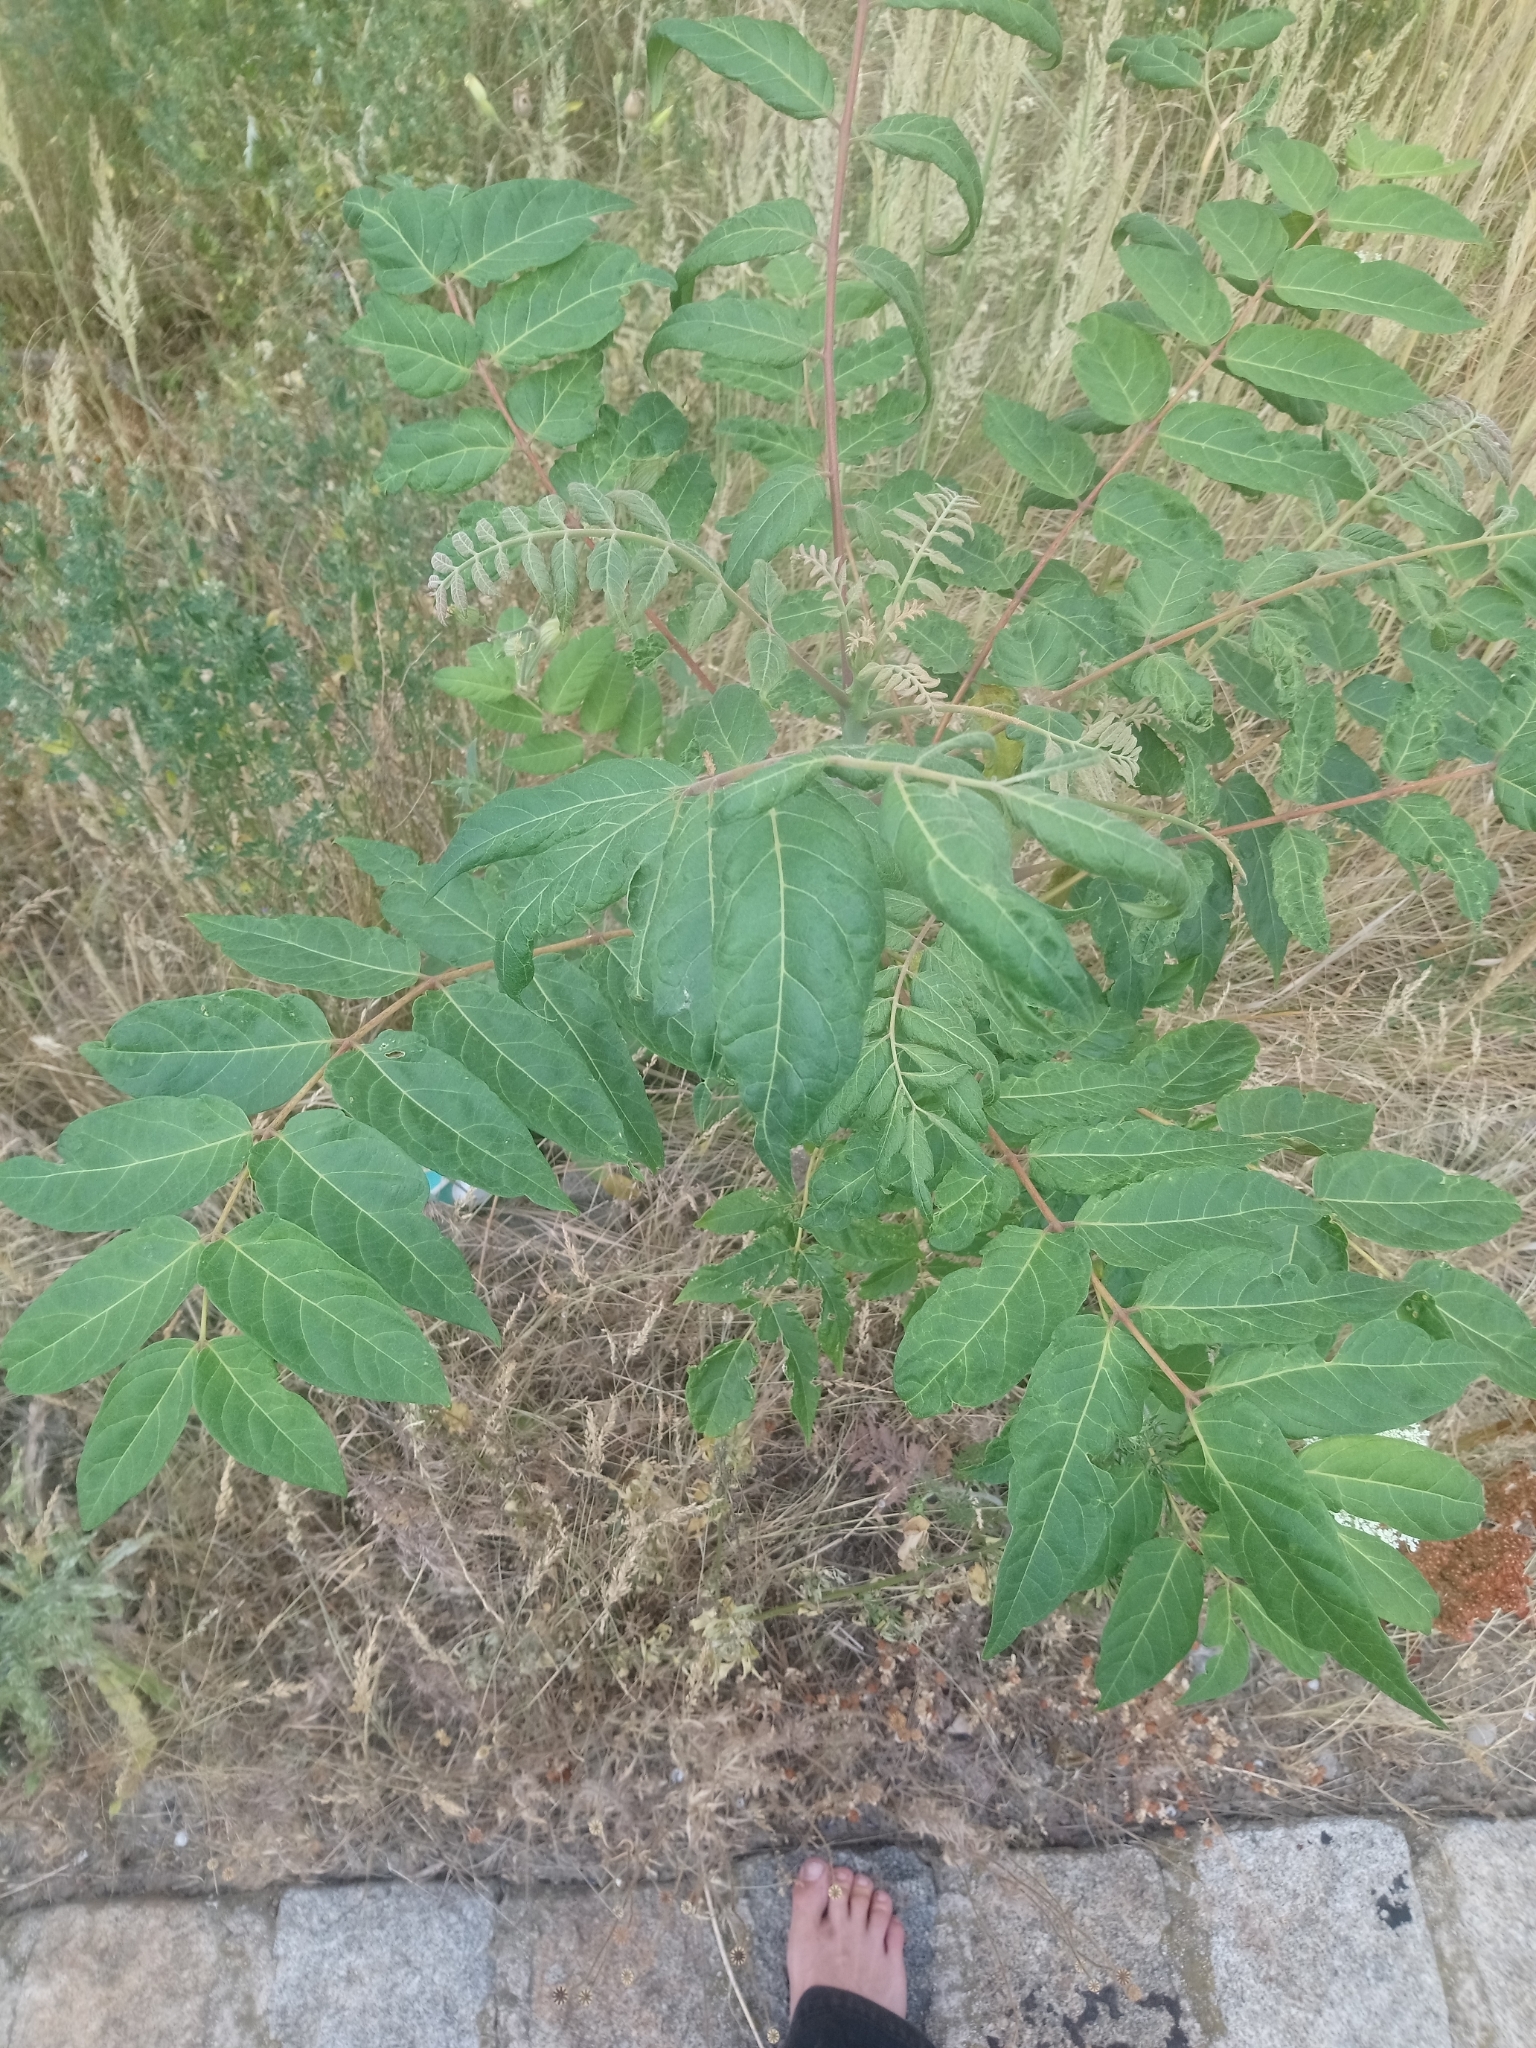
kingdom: Plantae
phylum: Tracheophyta
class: Magnoliopsida
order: Sapindales
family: Simaroubaceae
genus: Ailanthus
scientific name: Ailanthus altissima
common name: Tree-of-heaven
